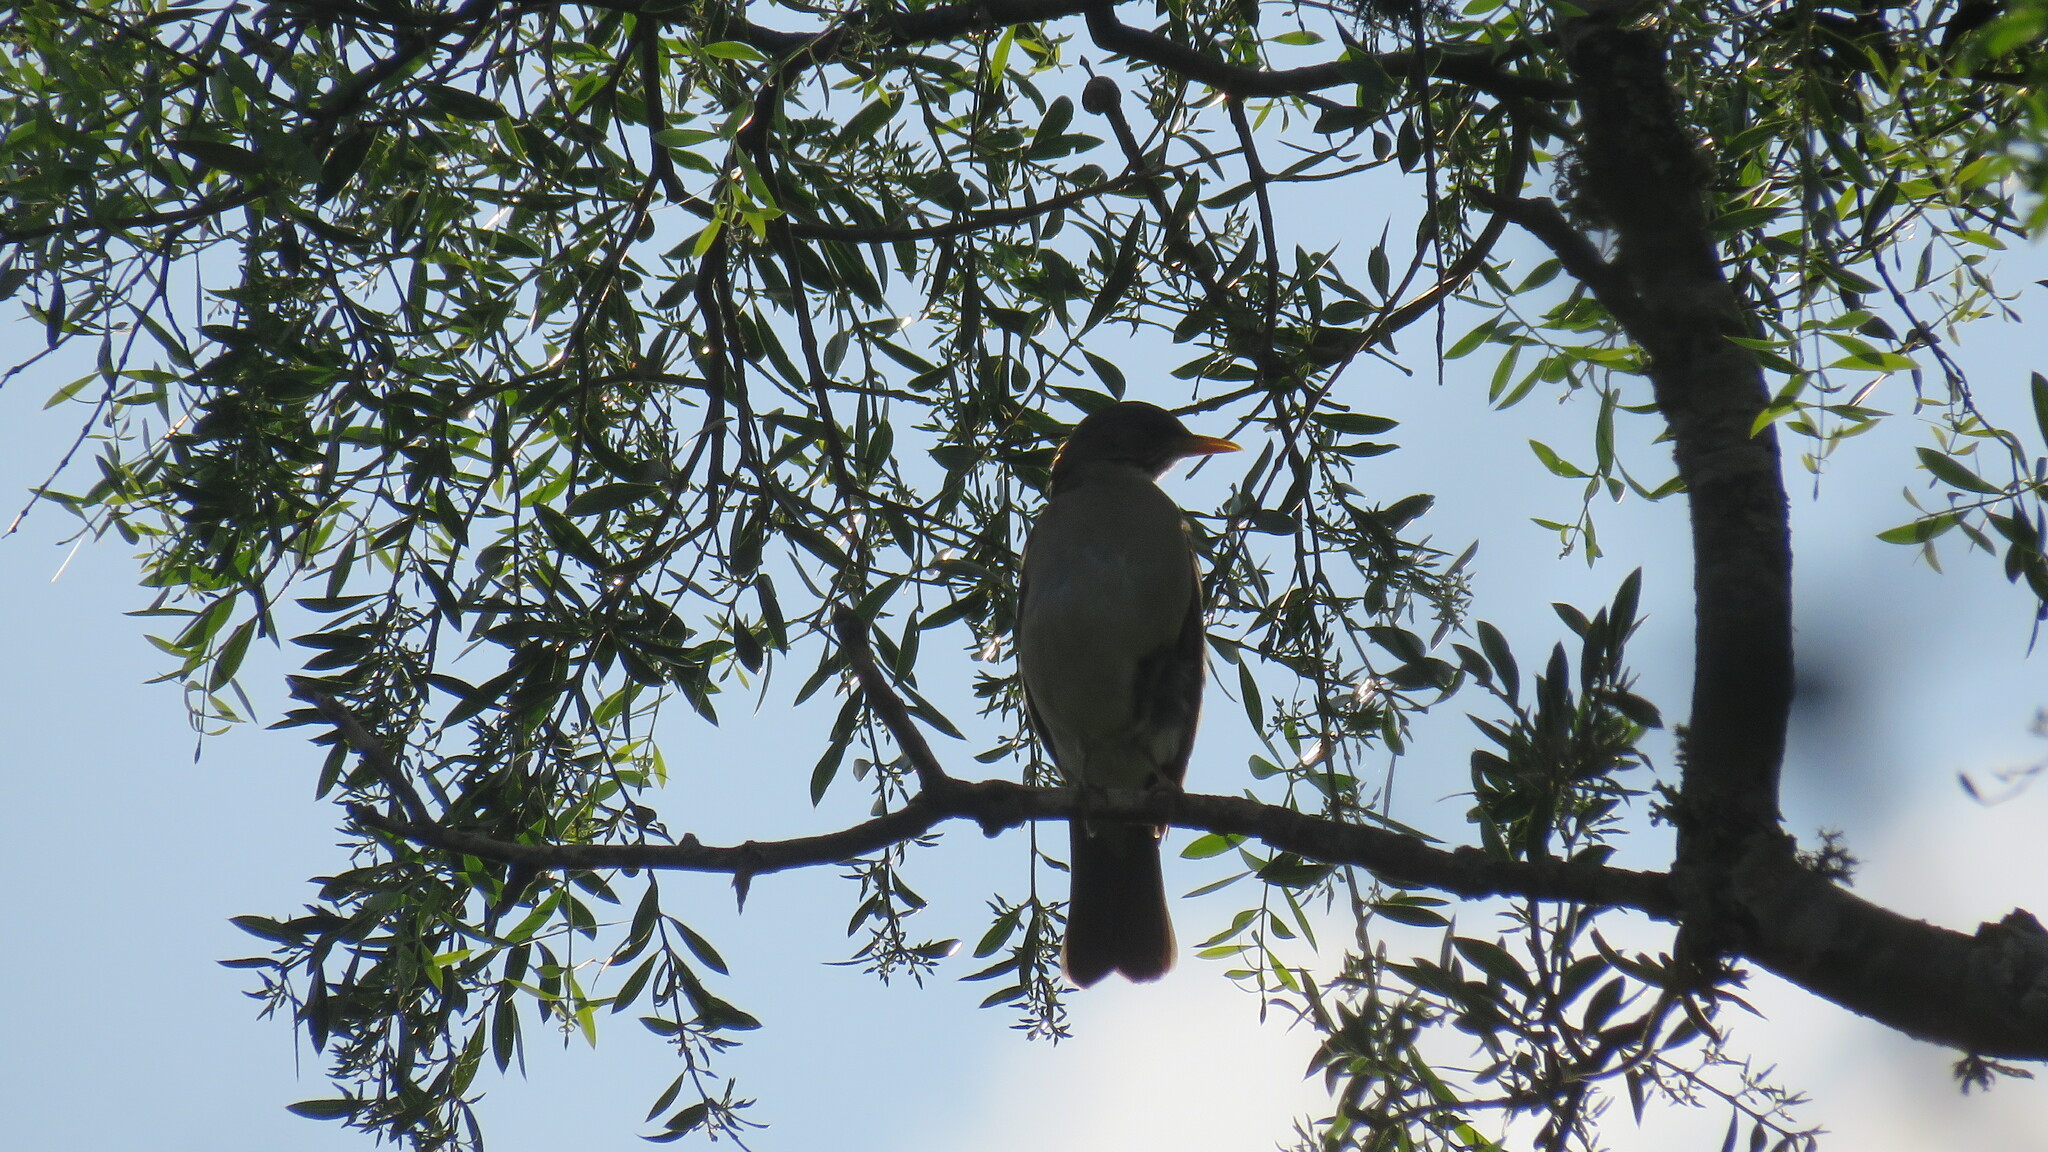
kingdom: Animalia
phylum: Chordata
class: Aves
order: Passeriformes
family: Turdidae
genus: Turdus
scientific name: Turdus amaurochalinus
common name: Creamy-bellied thrush
